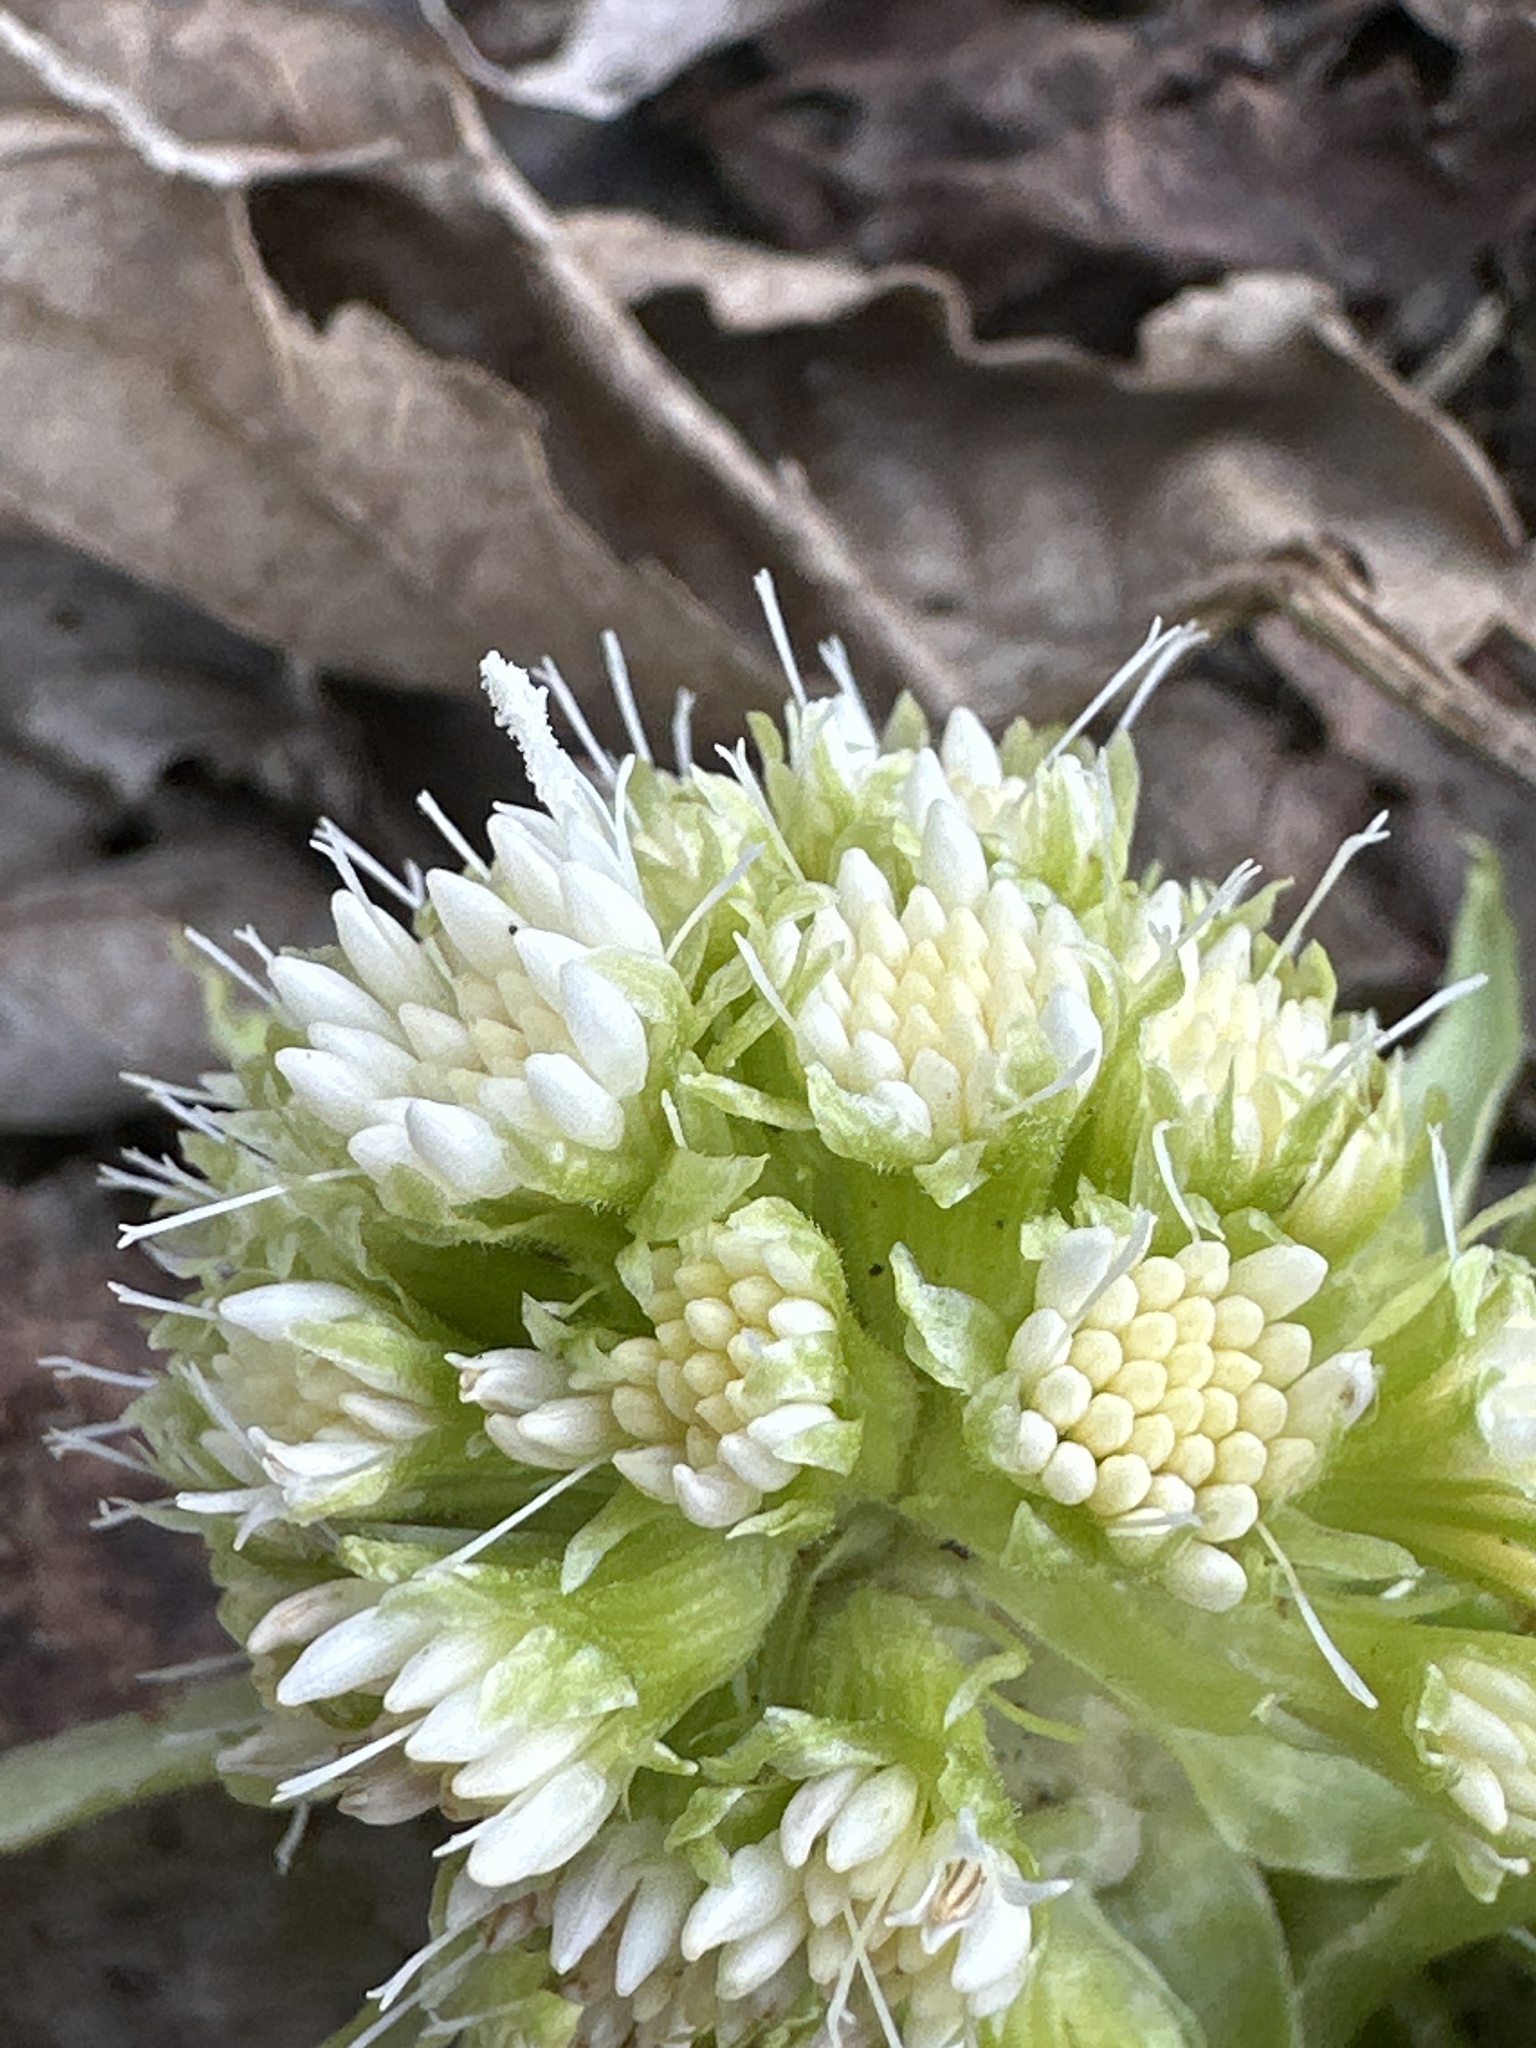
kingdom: Plantae
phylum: Tracheophyta
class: Magnoliopsida
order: Asterales
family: Asteraceae
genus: Petasites
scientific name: Petasites albus
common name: White butterbur
